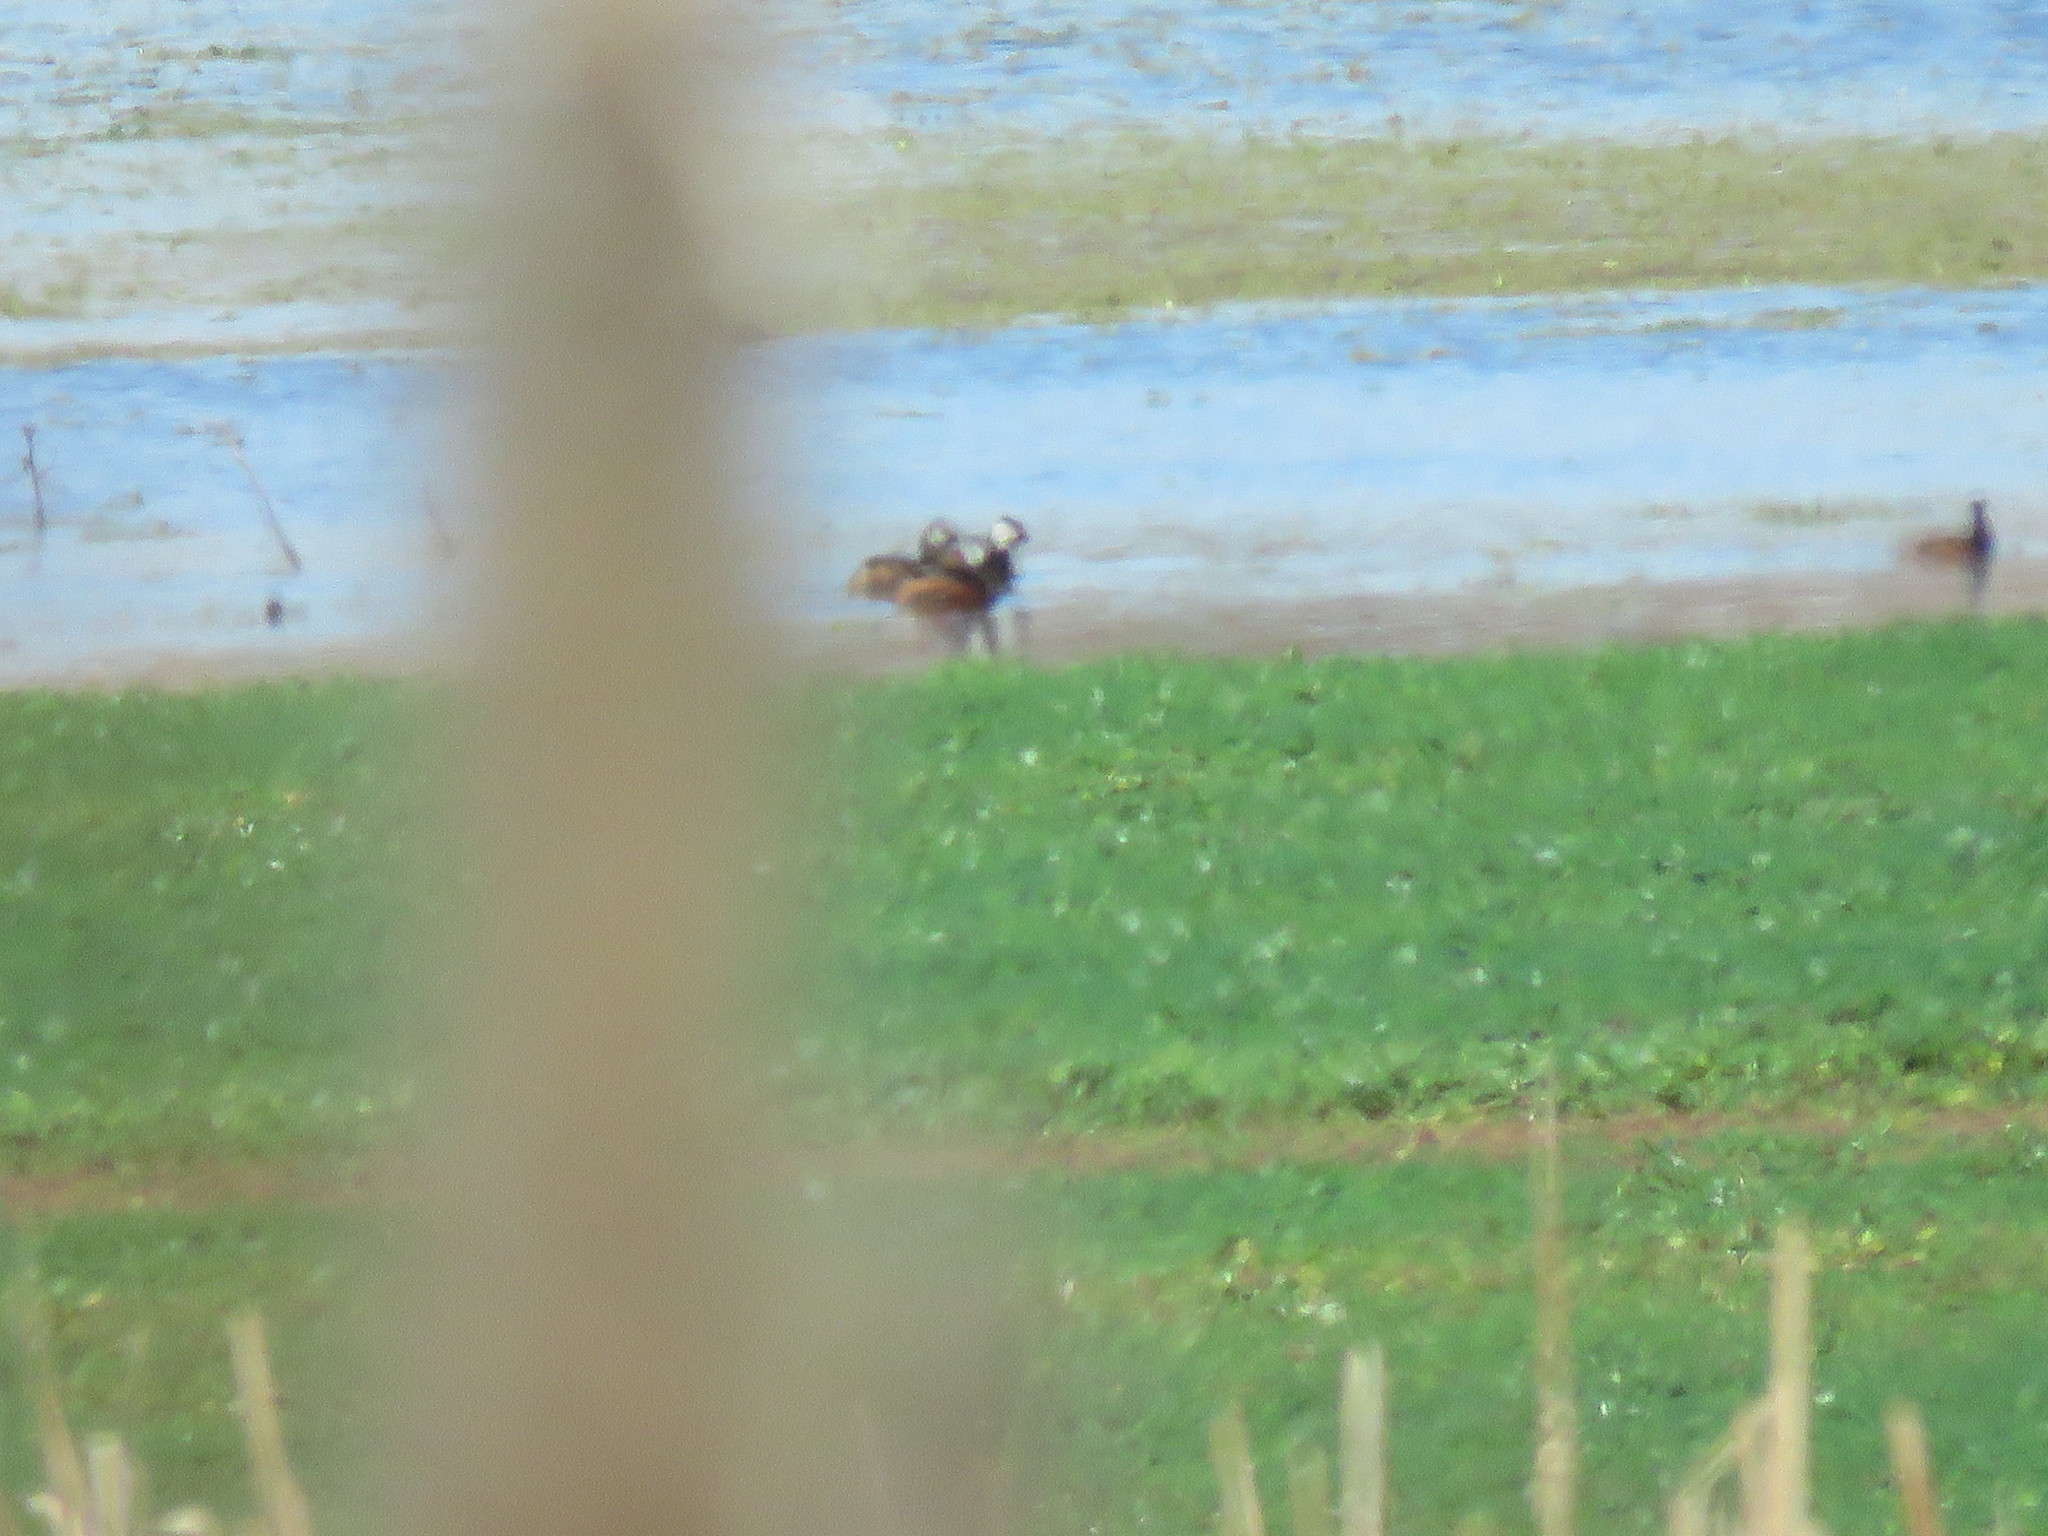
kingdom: Animalia
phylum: Chordata
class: Aves
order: Podicipediformes
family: Podicipedidae
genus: Rollandia
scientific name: Rollandia rolland
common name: White-tufted grebe
